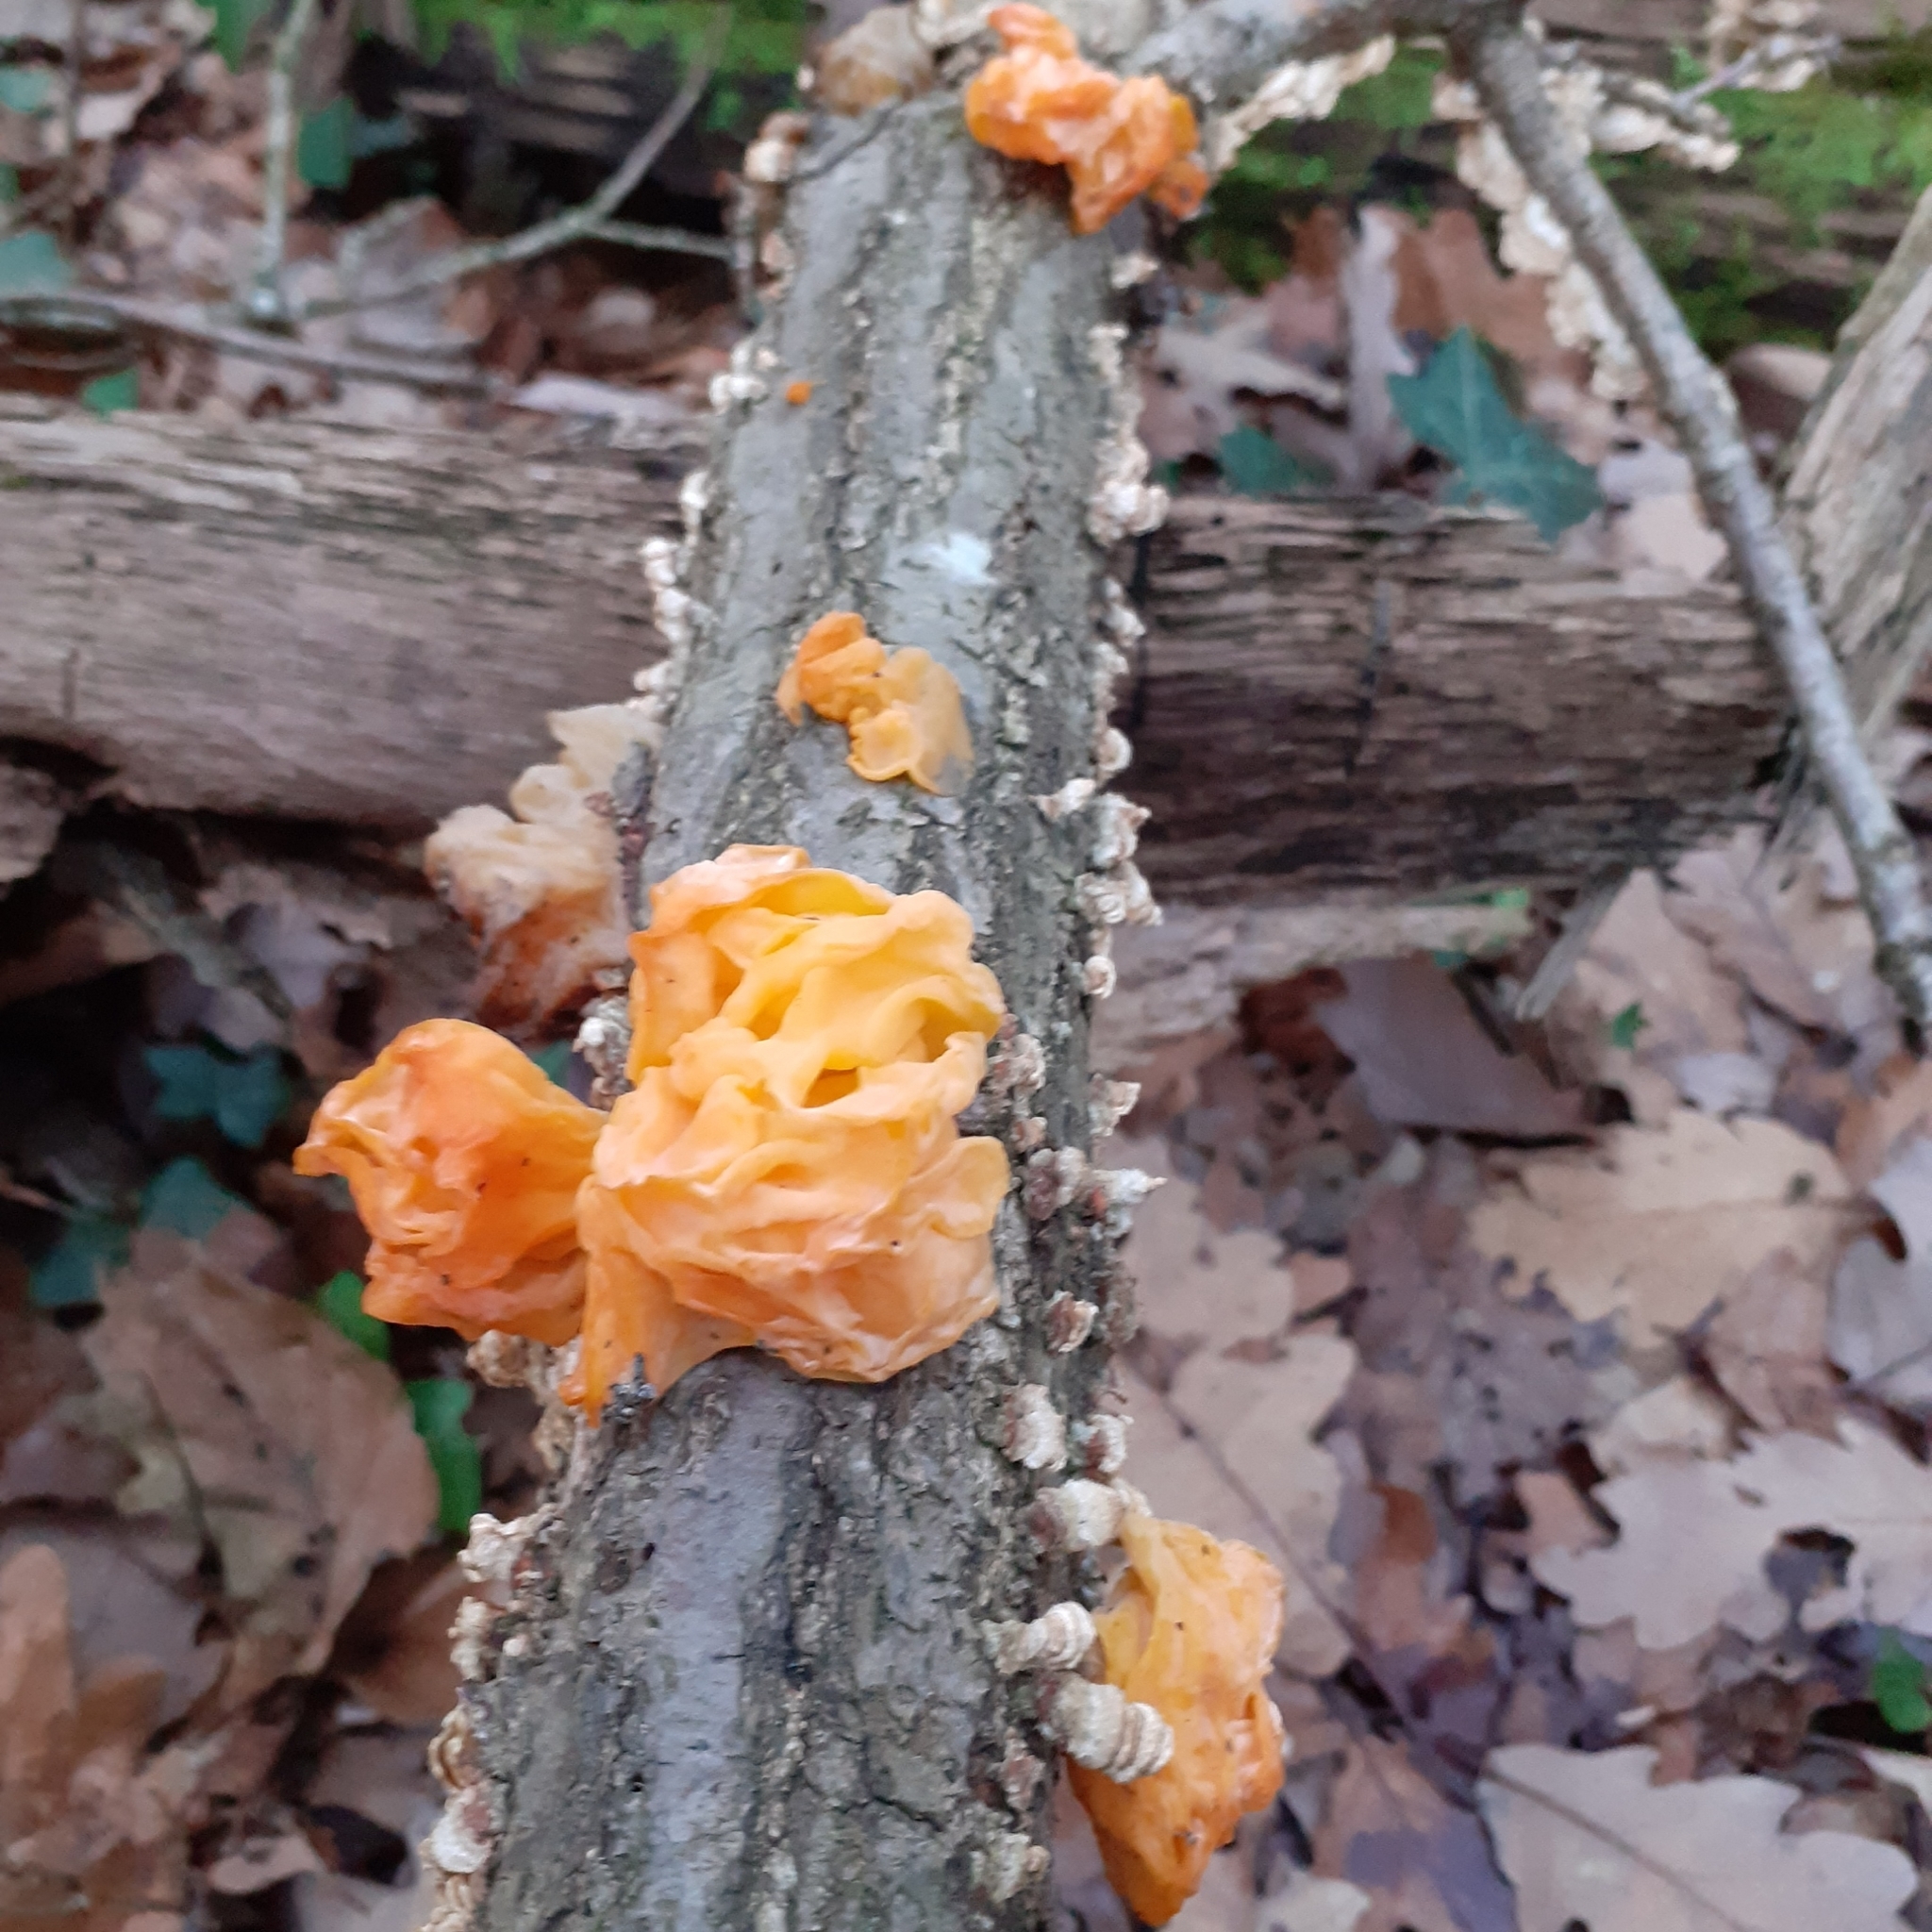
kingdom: Fungi
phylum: Basidiomycota
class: Tremellomycetes
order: Tremellales
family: Naemateliaceae
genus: Naematelia
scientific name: Naematelia aurantia
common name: Golden ear
